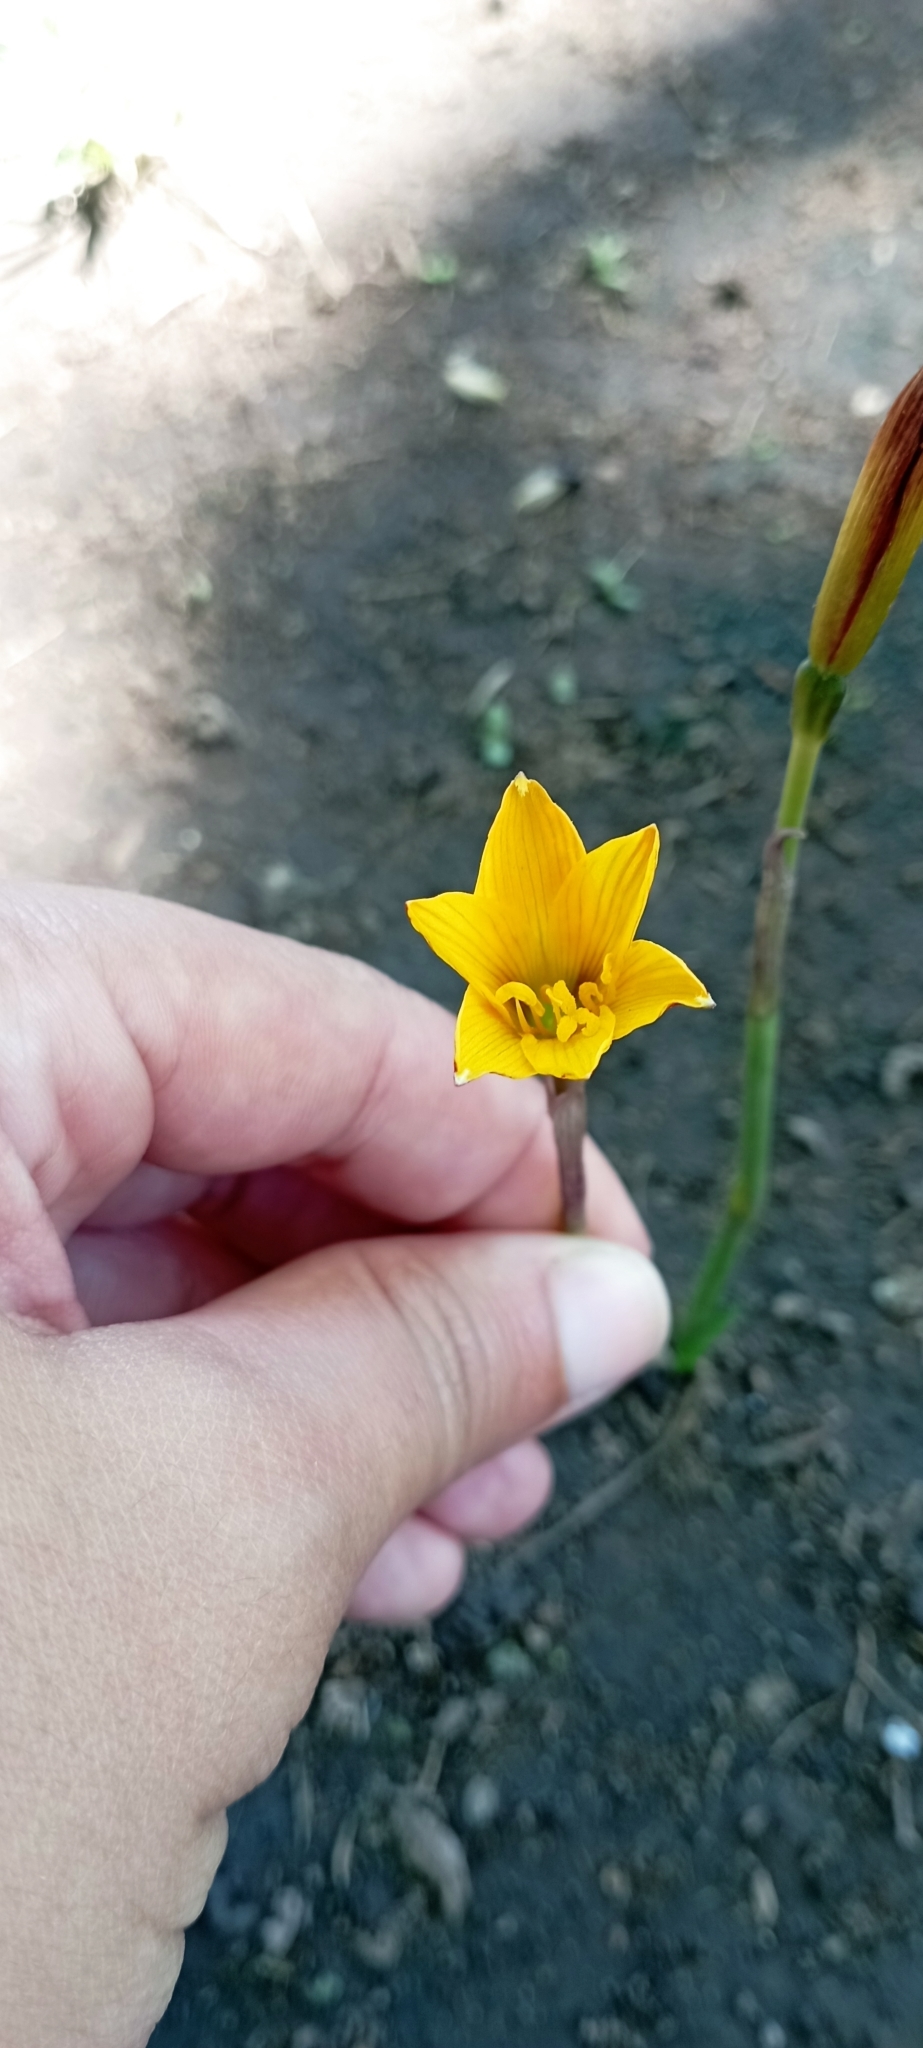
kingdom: Plantae
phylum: Tracheophyta
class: Liliopsida
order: Asparagales
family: Amaryllidaceae
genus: Zephyranthes
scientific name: Zephyranthes tubispatha
